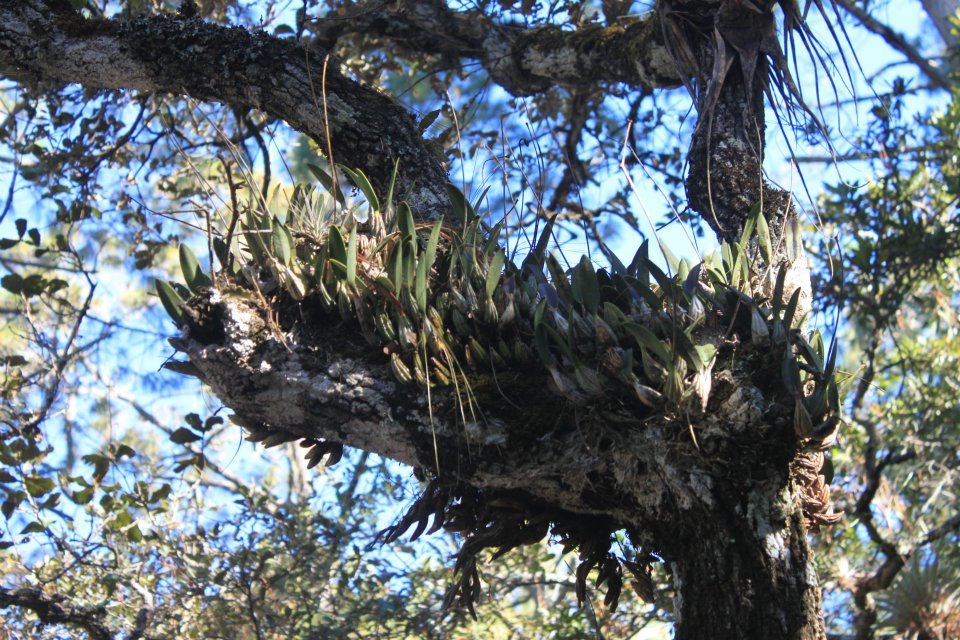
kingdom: Plantae
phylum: Tracheophyta
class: Liliopsida
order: Asparagales
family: Orchidaceae
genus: Laelia
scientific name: Laelia furfuracea
